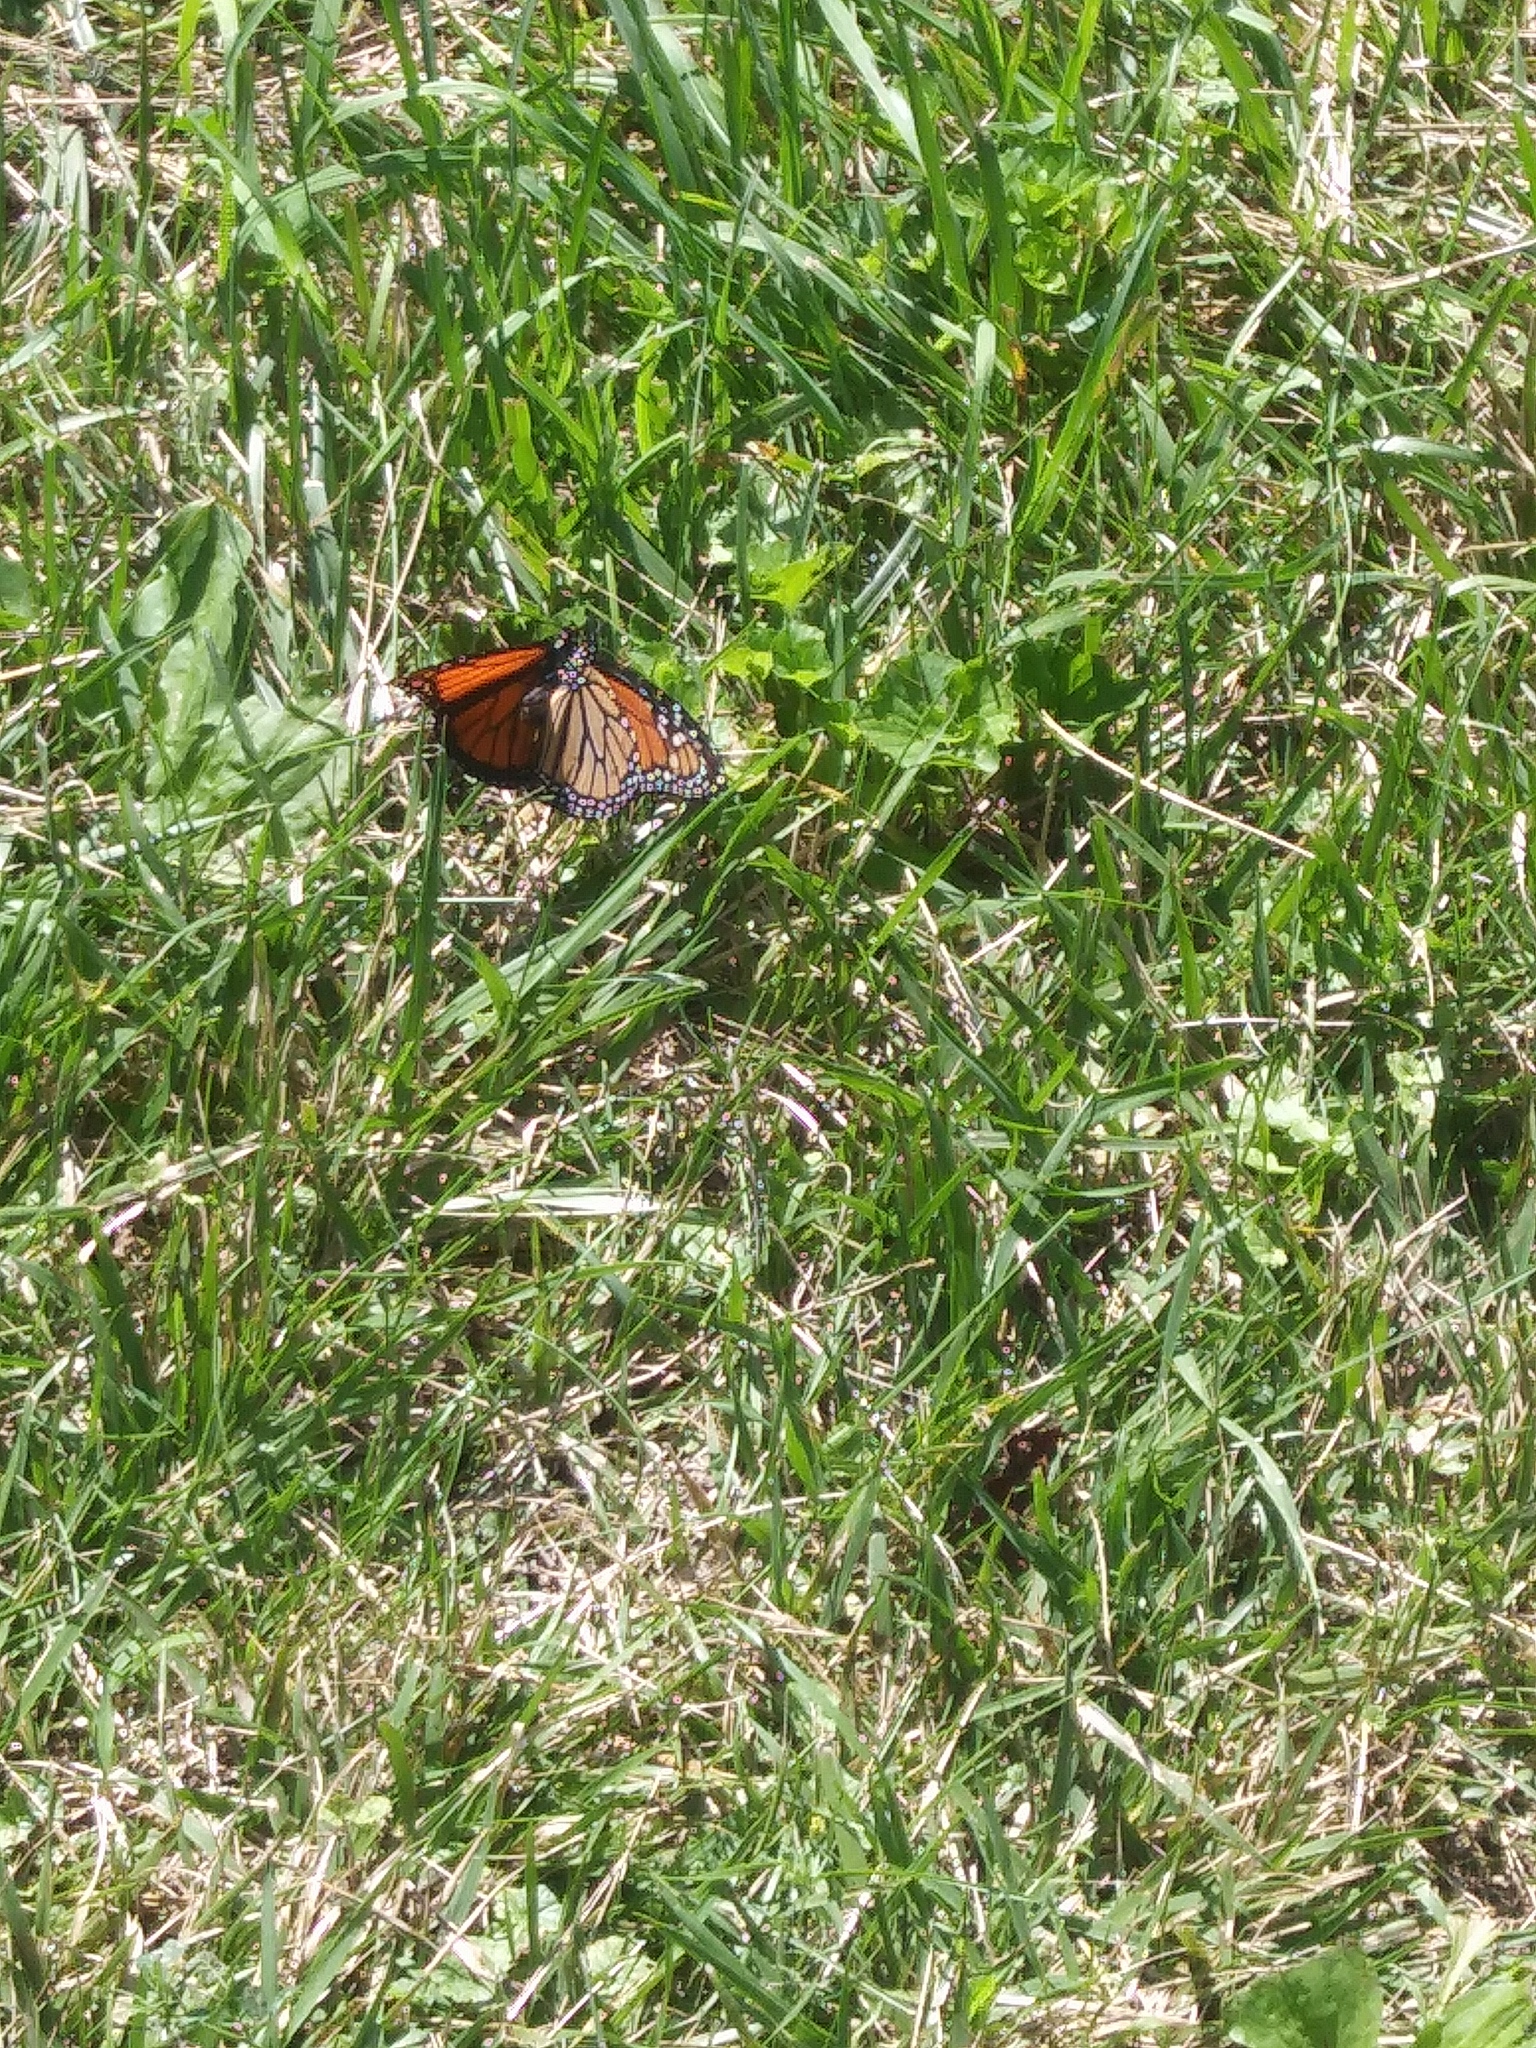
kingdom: Animalia
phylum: Arthropoda
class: Insecta
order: Lepidoptera
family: Nymphalidae
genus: Danaus
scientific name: Danaus plexippus
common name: Monarch
